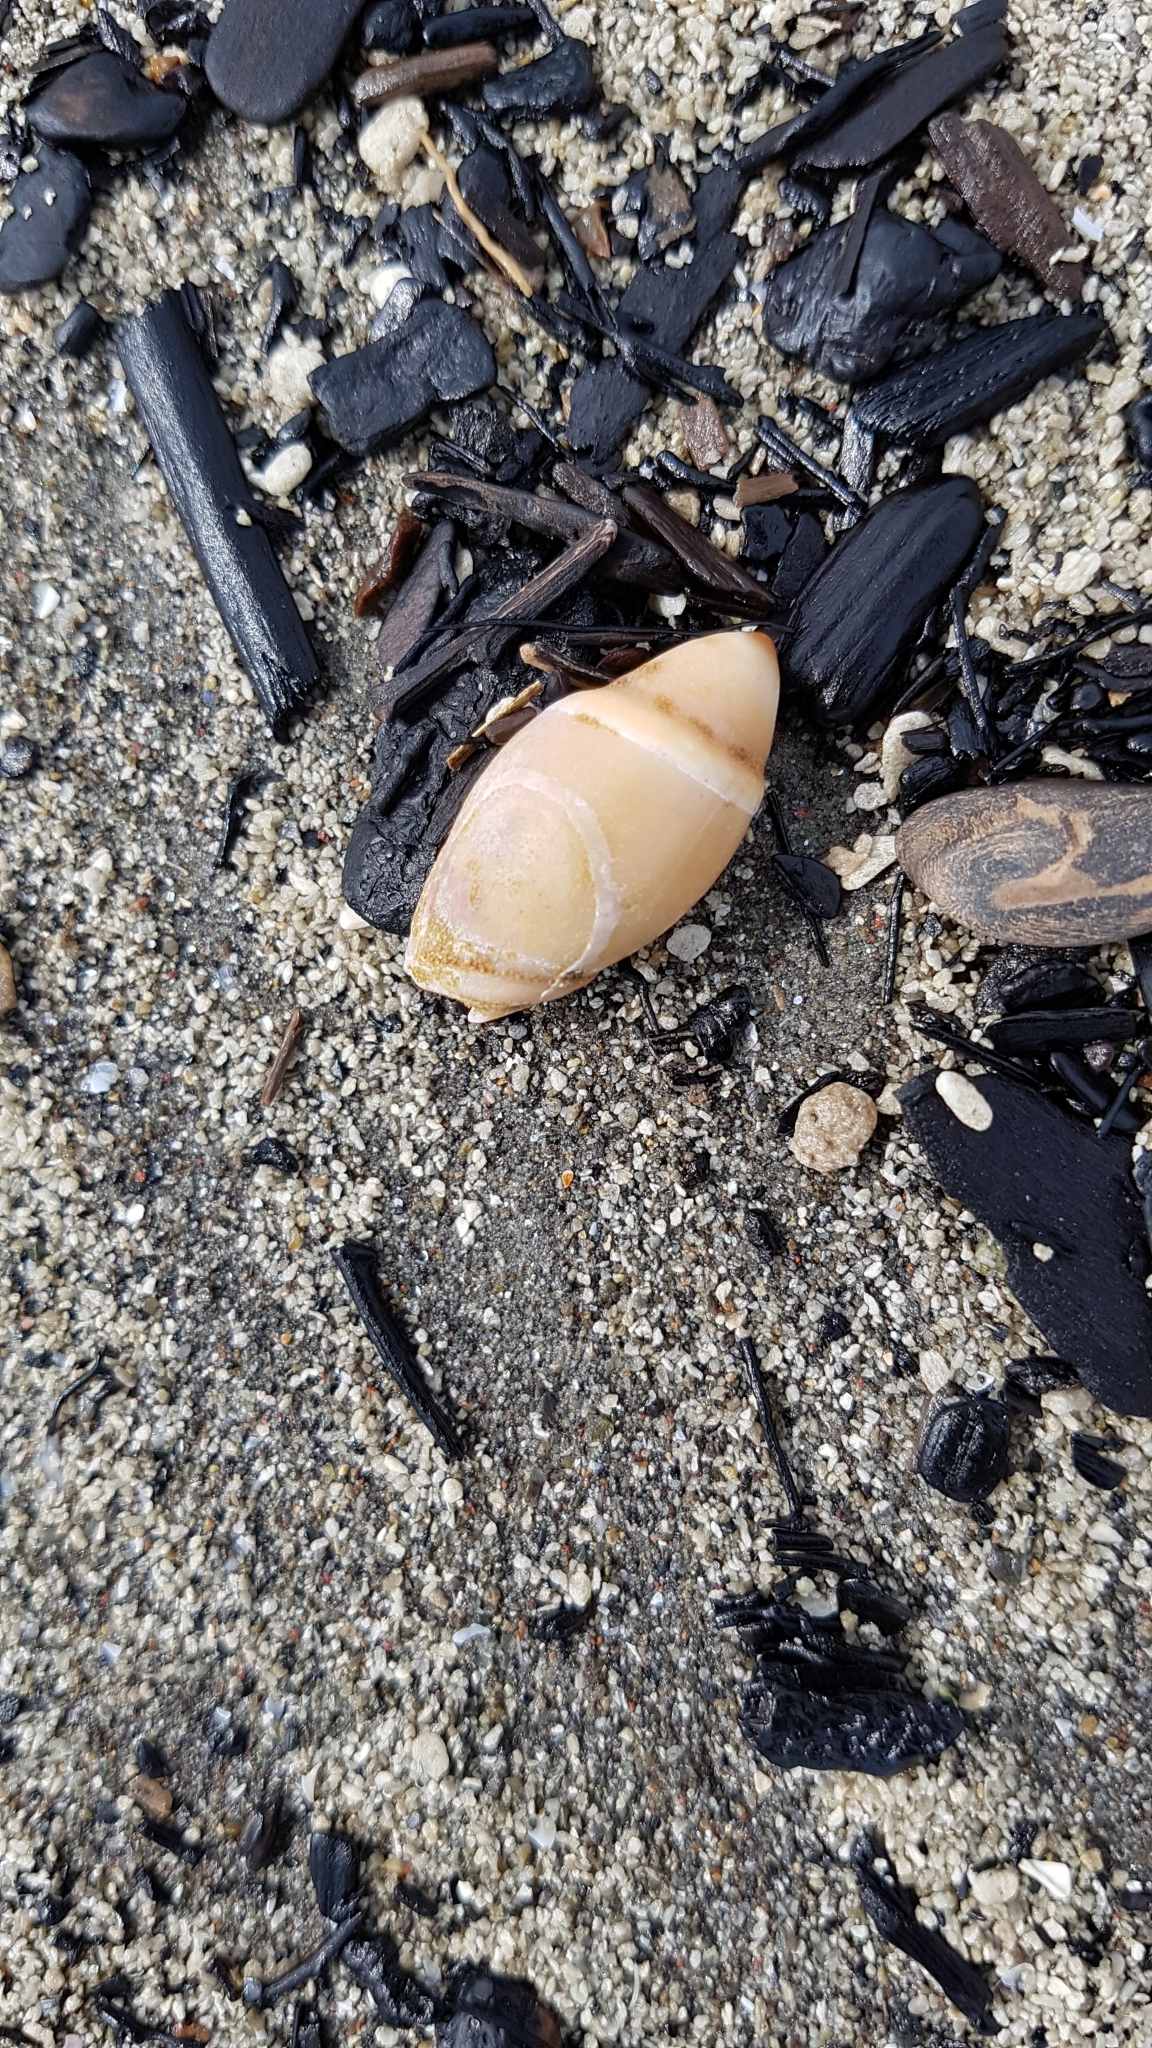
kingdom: Animalia
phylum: Mollusca
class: Gastropoda
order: Neogastropoda
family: Ancillariidae
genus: Amalda
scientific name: Amalda mucronata
